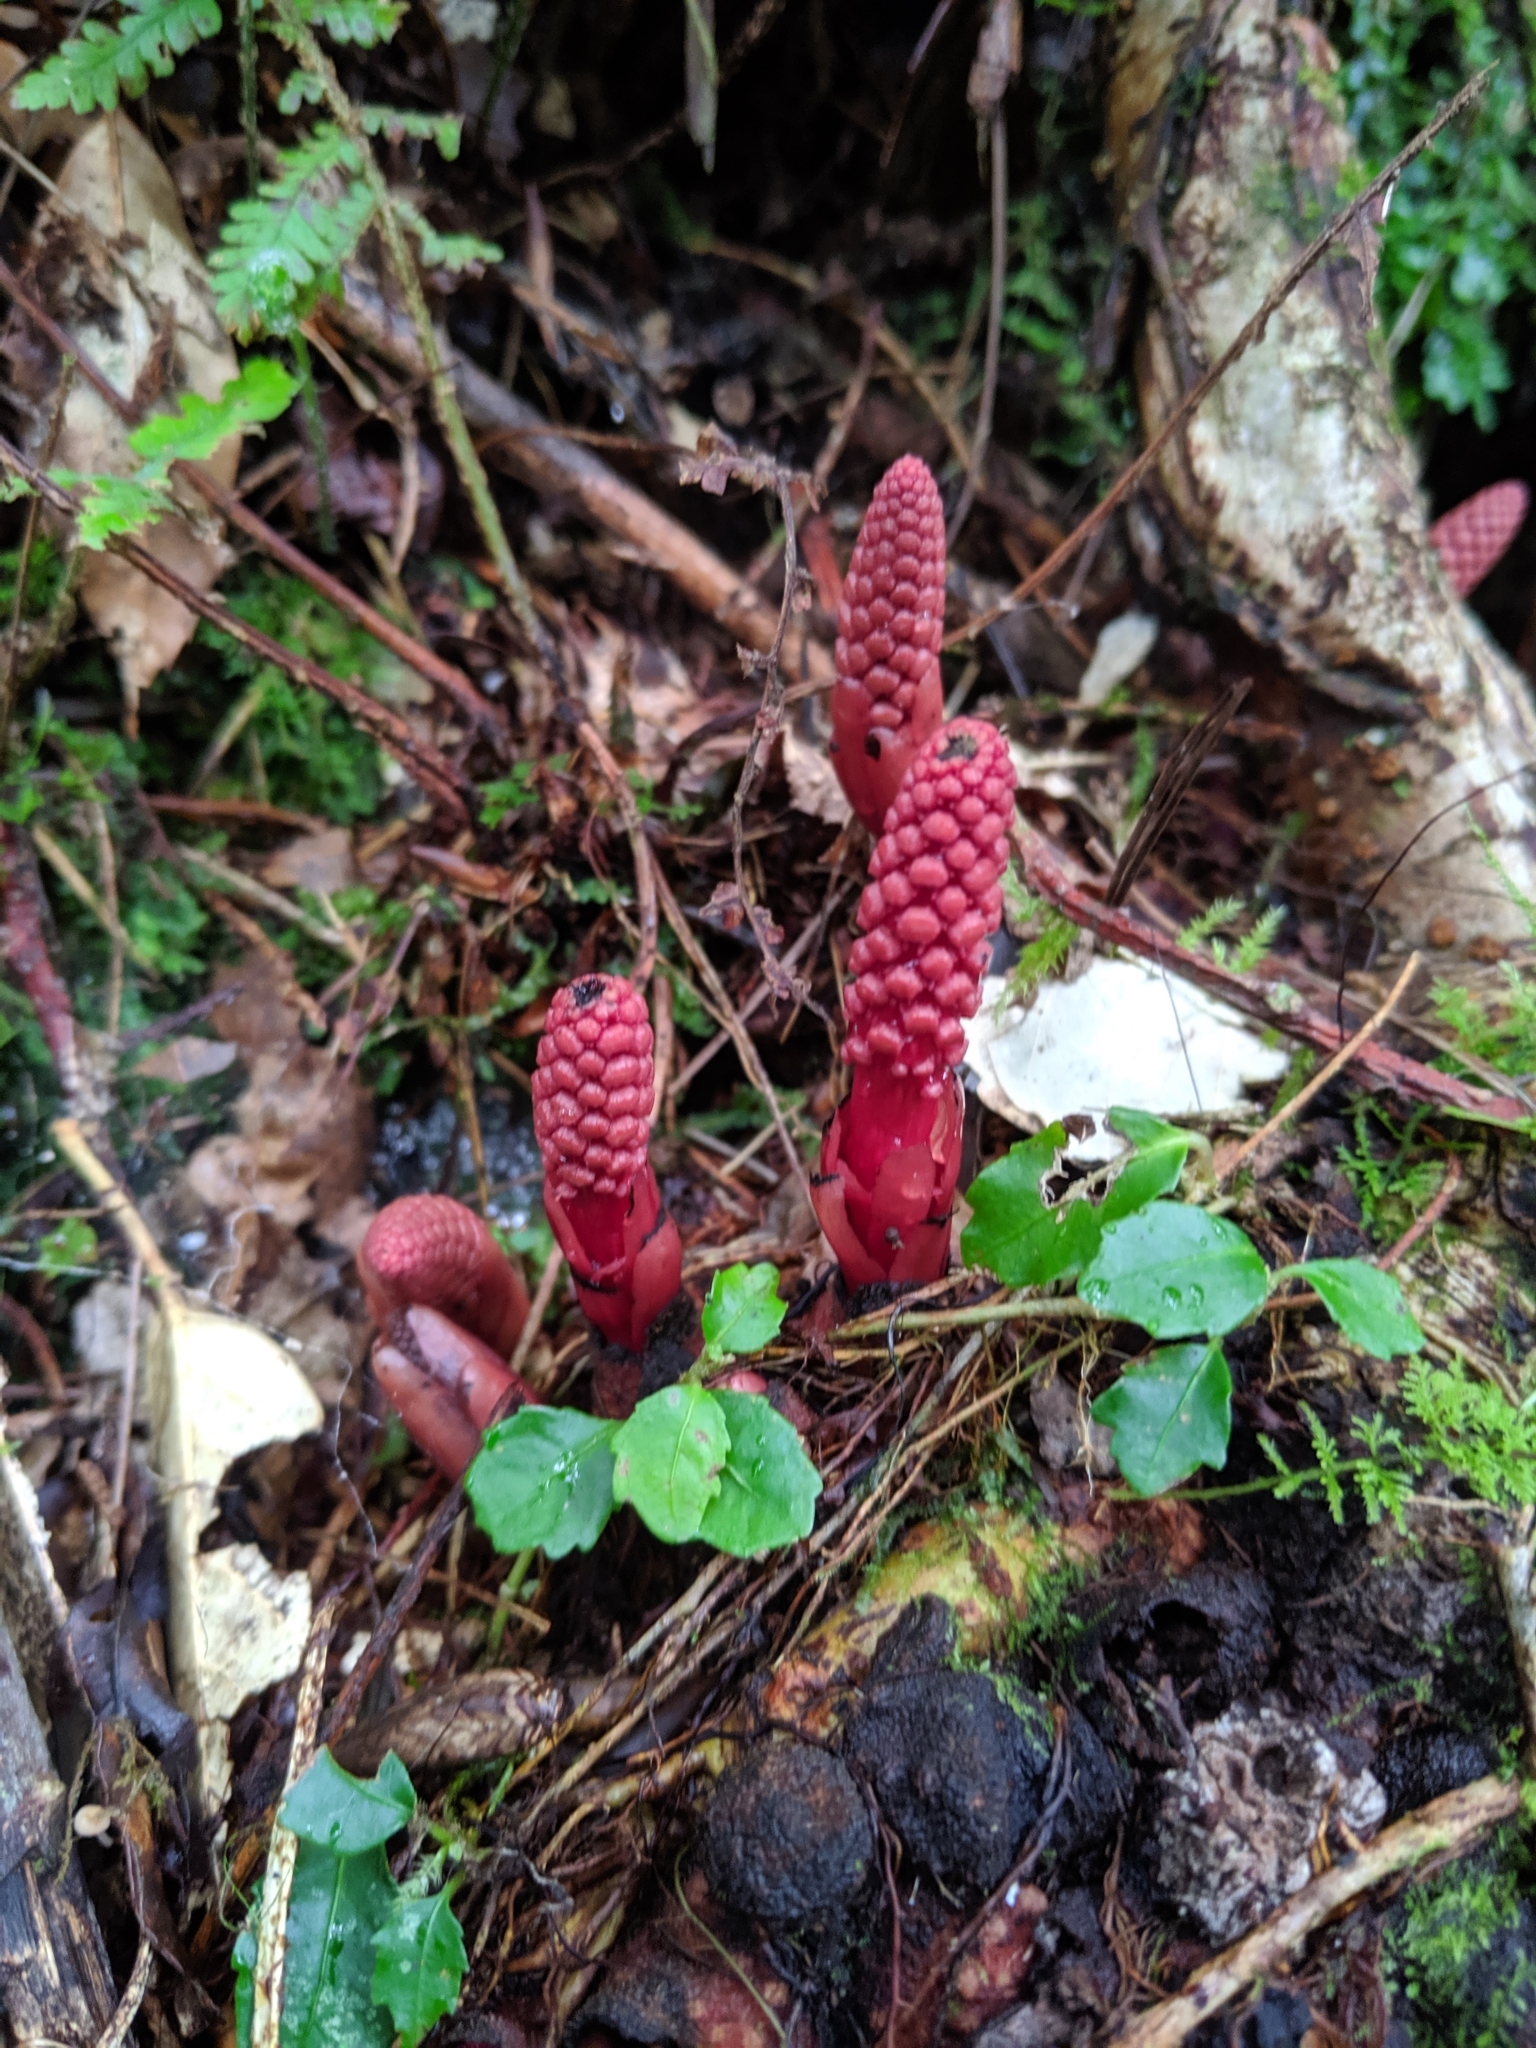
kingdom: Plantae
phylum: Tracheophyta
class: Magnoliopsida
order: Santalales
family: Balanophoraceae
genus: Balanophora
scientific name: Balanophora laxiflora
